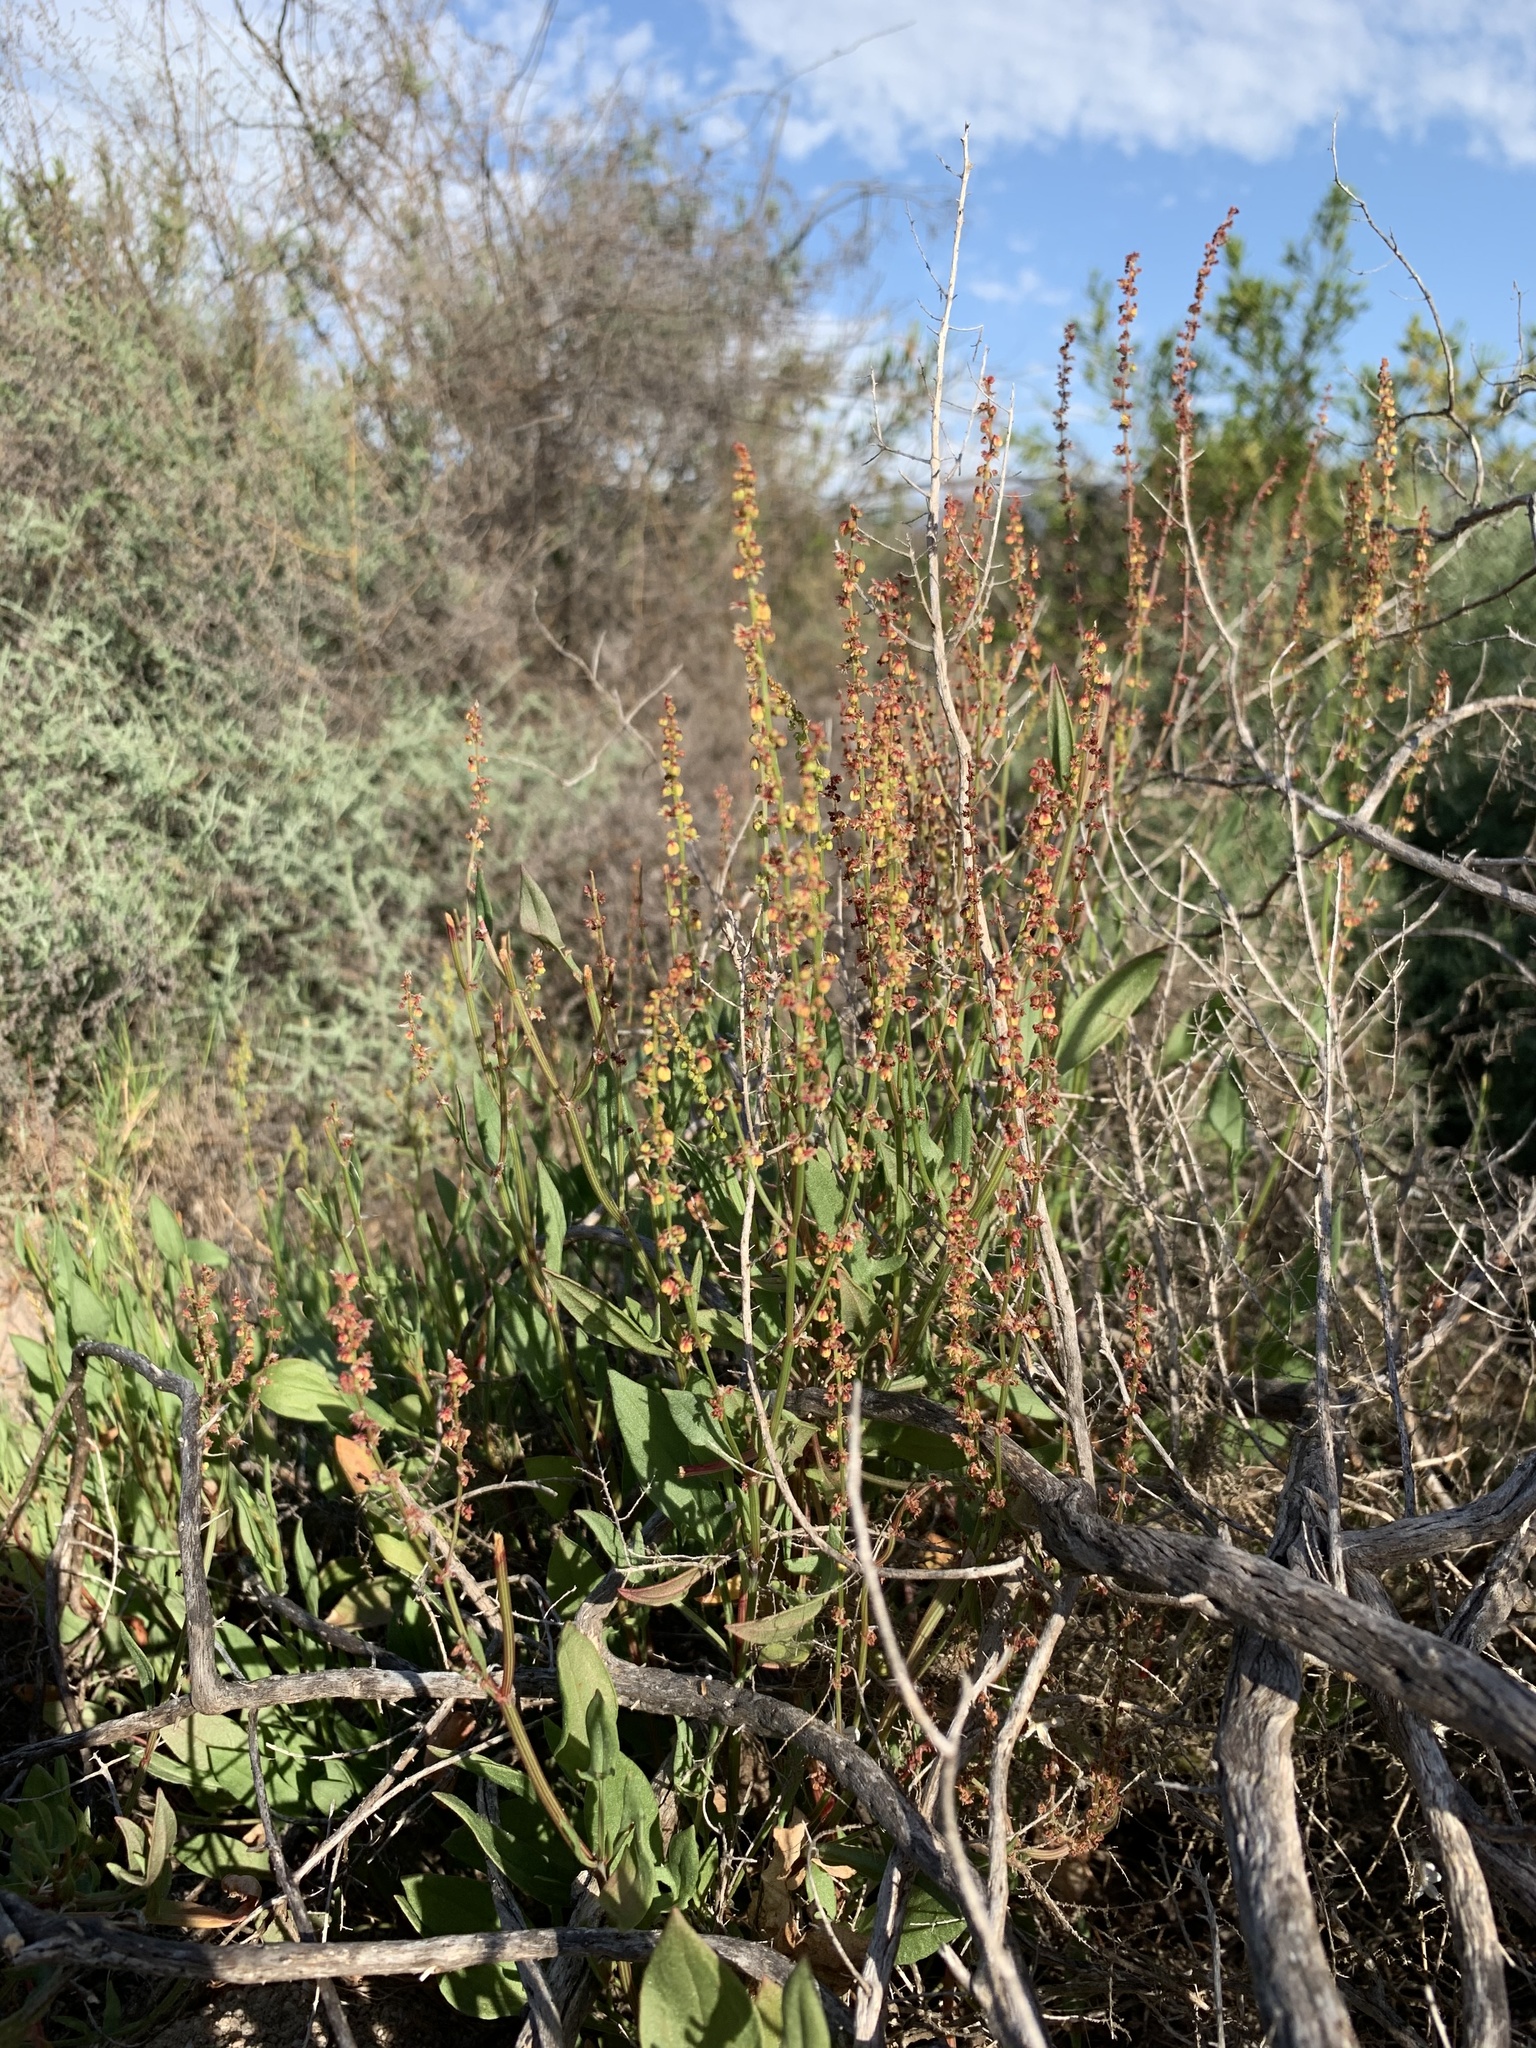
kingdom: Plantae
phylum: Tracheophyta
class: Magnoliopsida
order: Caryophyllales
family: Polygonaceae
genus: Rumex
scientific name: Rumex acetosella
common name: Common sheep sorrel
